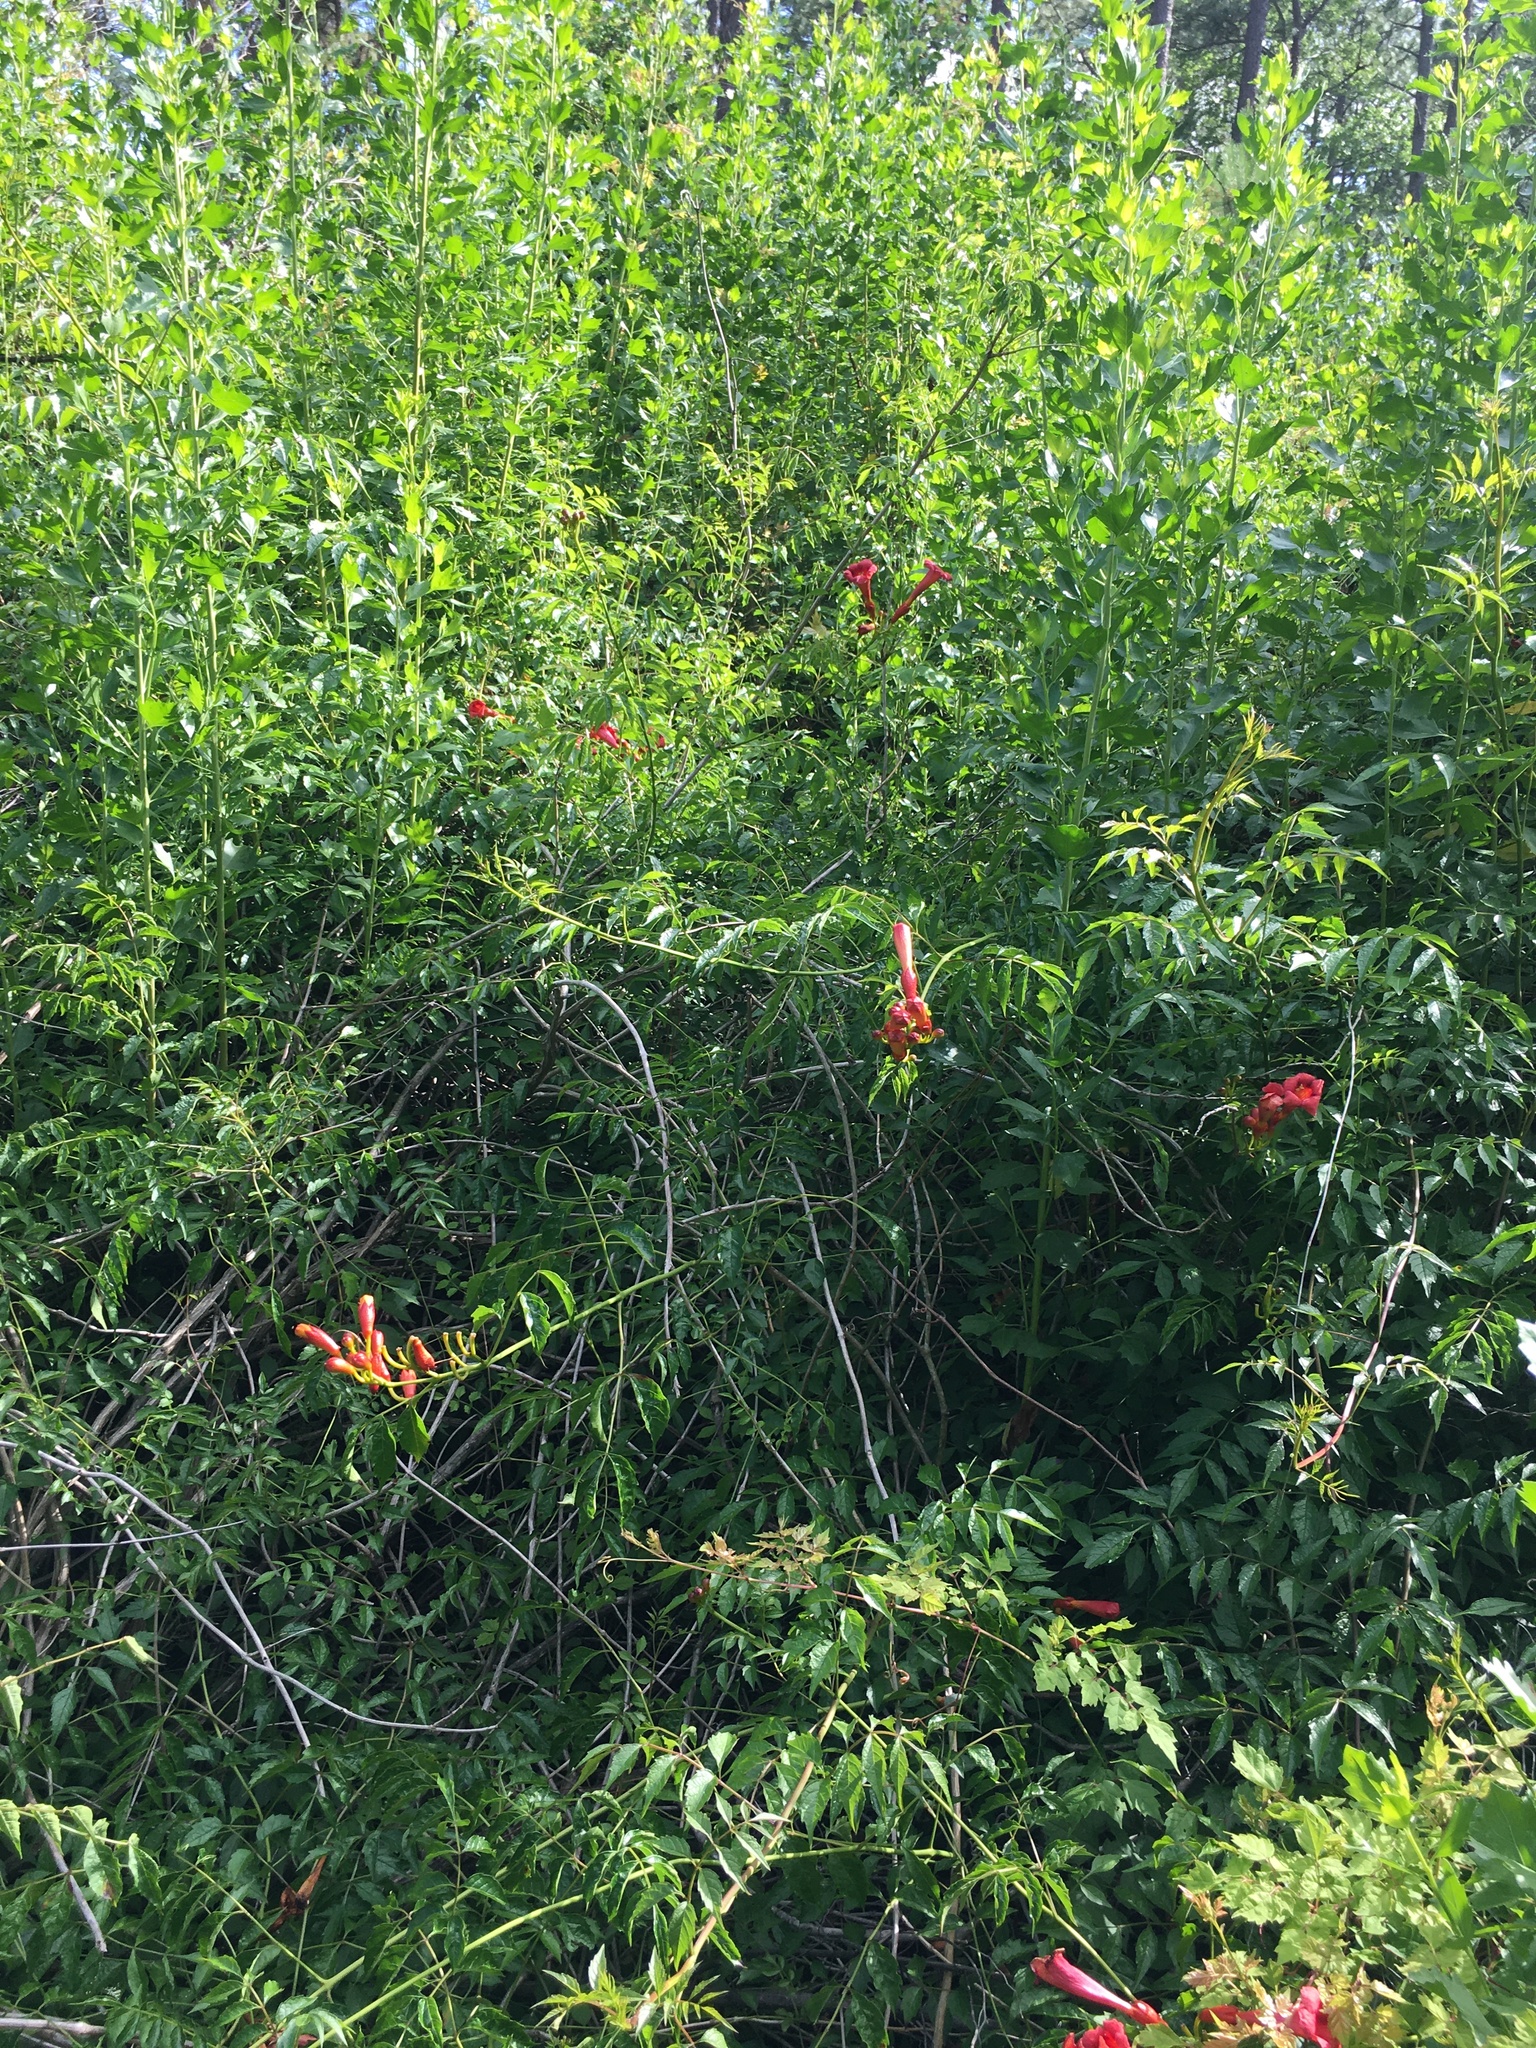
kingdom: Plantae
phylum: Tracheophyta
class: Magnoliopsida
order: Lamiales
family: Bignoniaceae
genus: Campsis
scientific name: Campsis radicans
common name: Trumpet-creeper
